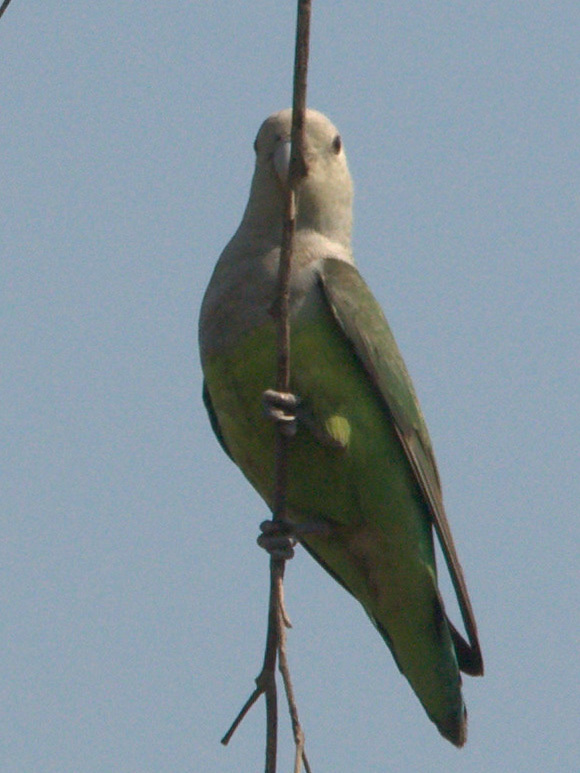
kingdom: Animalia
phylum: Chordata
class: Aves
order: Psittaciformes
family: Psittacidae
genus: Agapornis
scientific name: Agapornis canus
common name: Grey-headed lovebird
